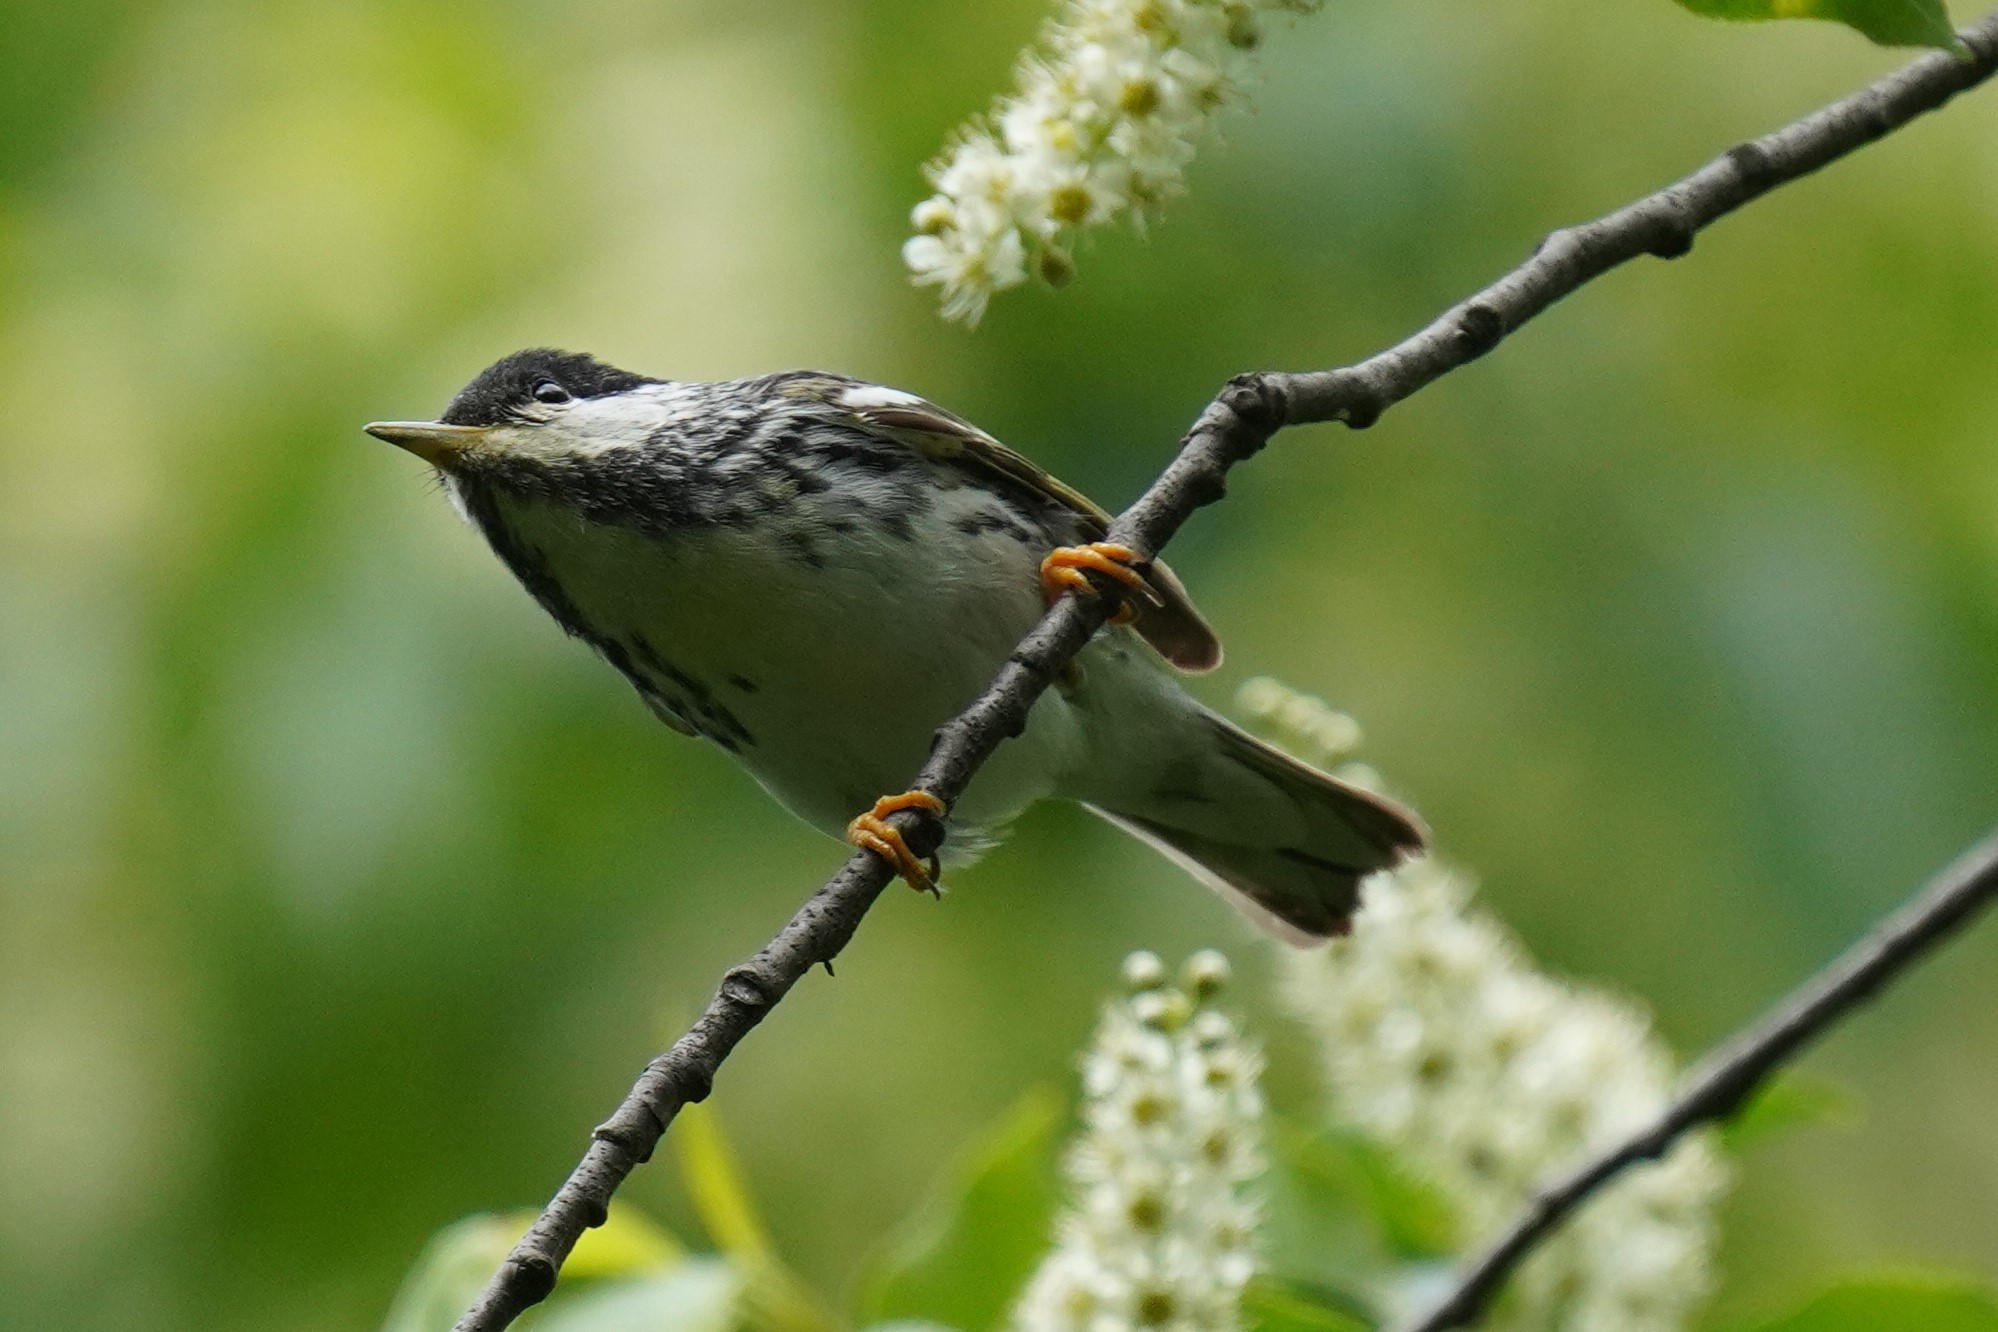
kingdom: Animalia
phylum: Chordata
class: Aves
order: Passeriformes
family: Parulidae
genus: Setophaga
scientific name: Setophaga striata
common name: Blackpoll warbler
